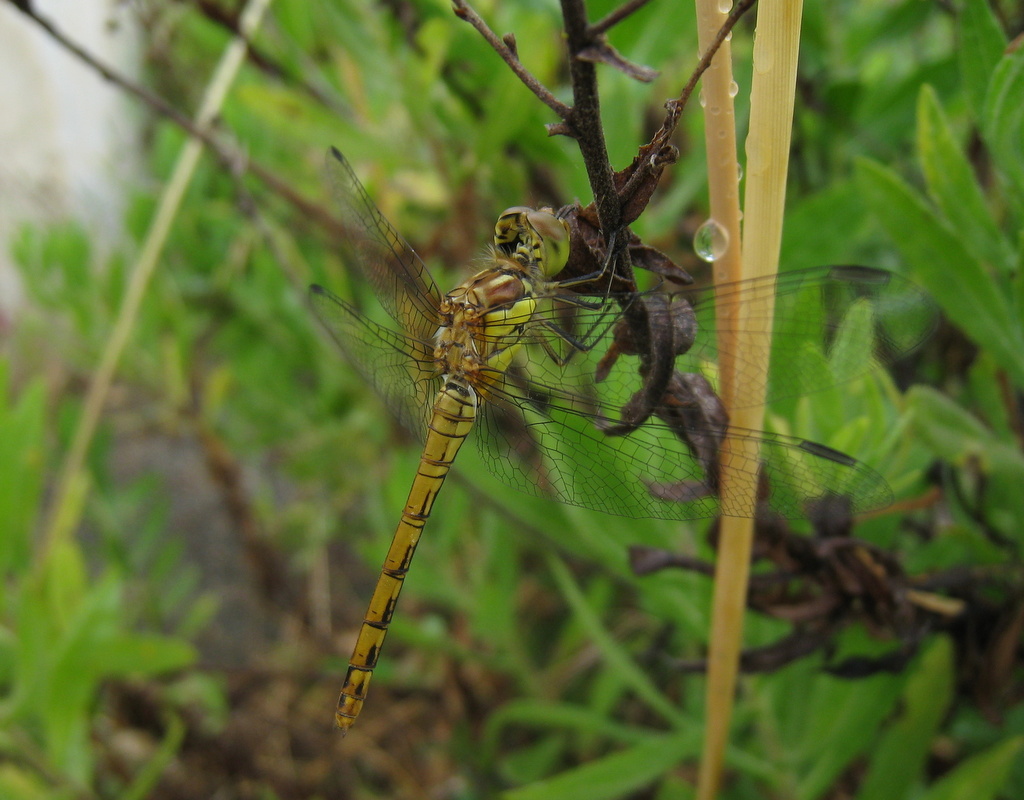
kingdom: Animalia
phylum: Arthropoda
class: Insecta
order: Odonata
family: Libellulidae
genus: Sympetrum
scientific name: Sympetrum striolatum
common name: Common darter
